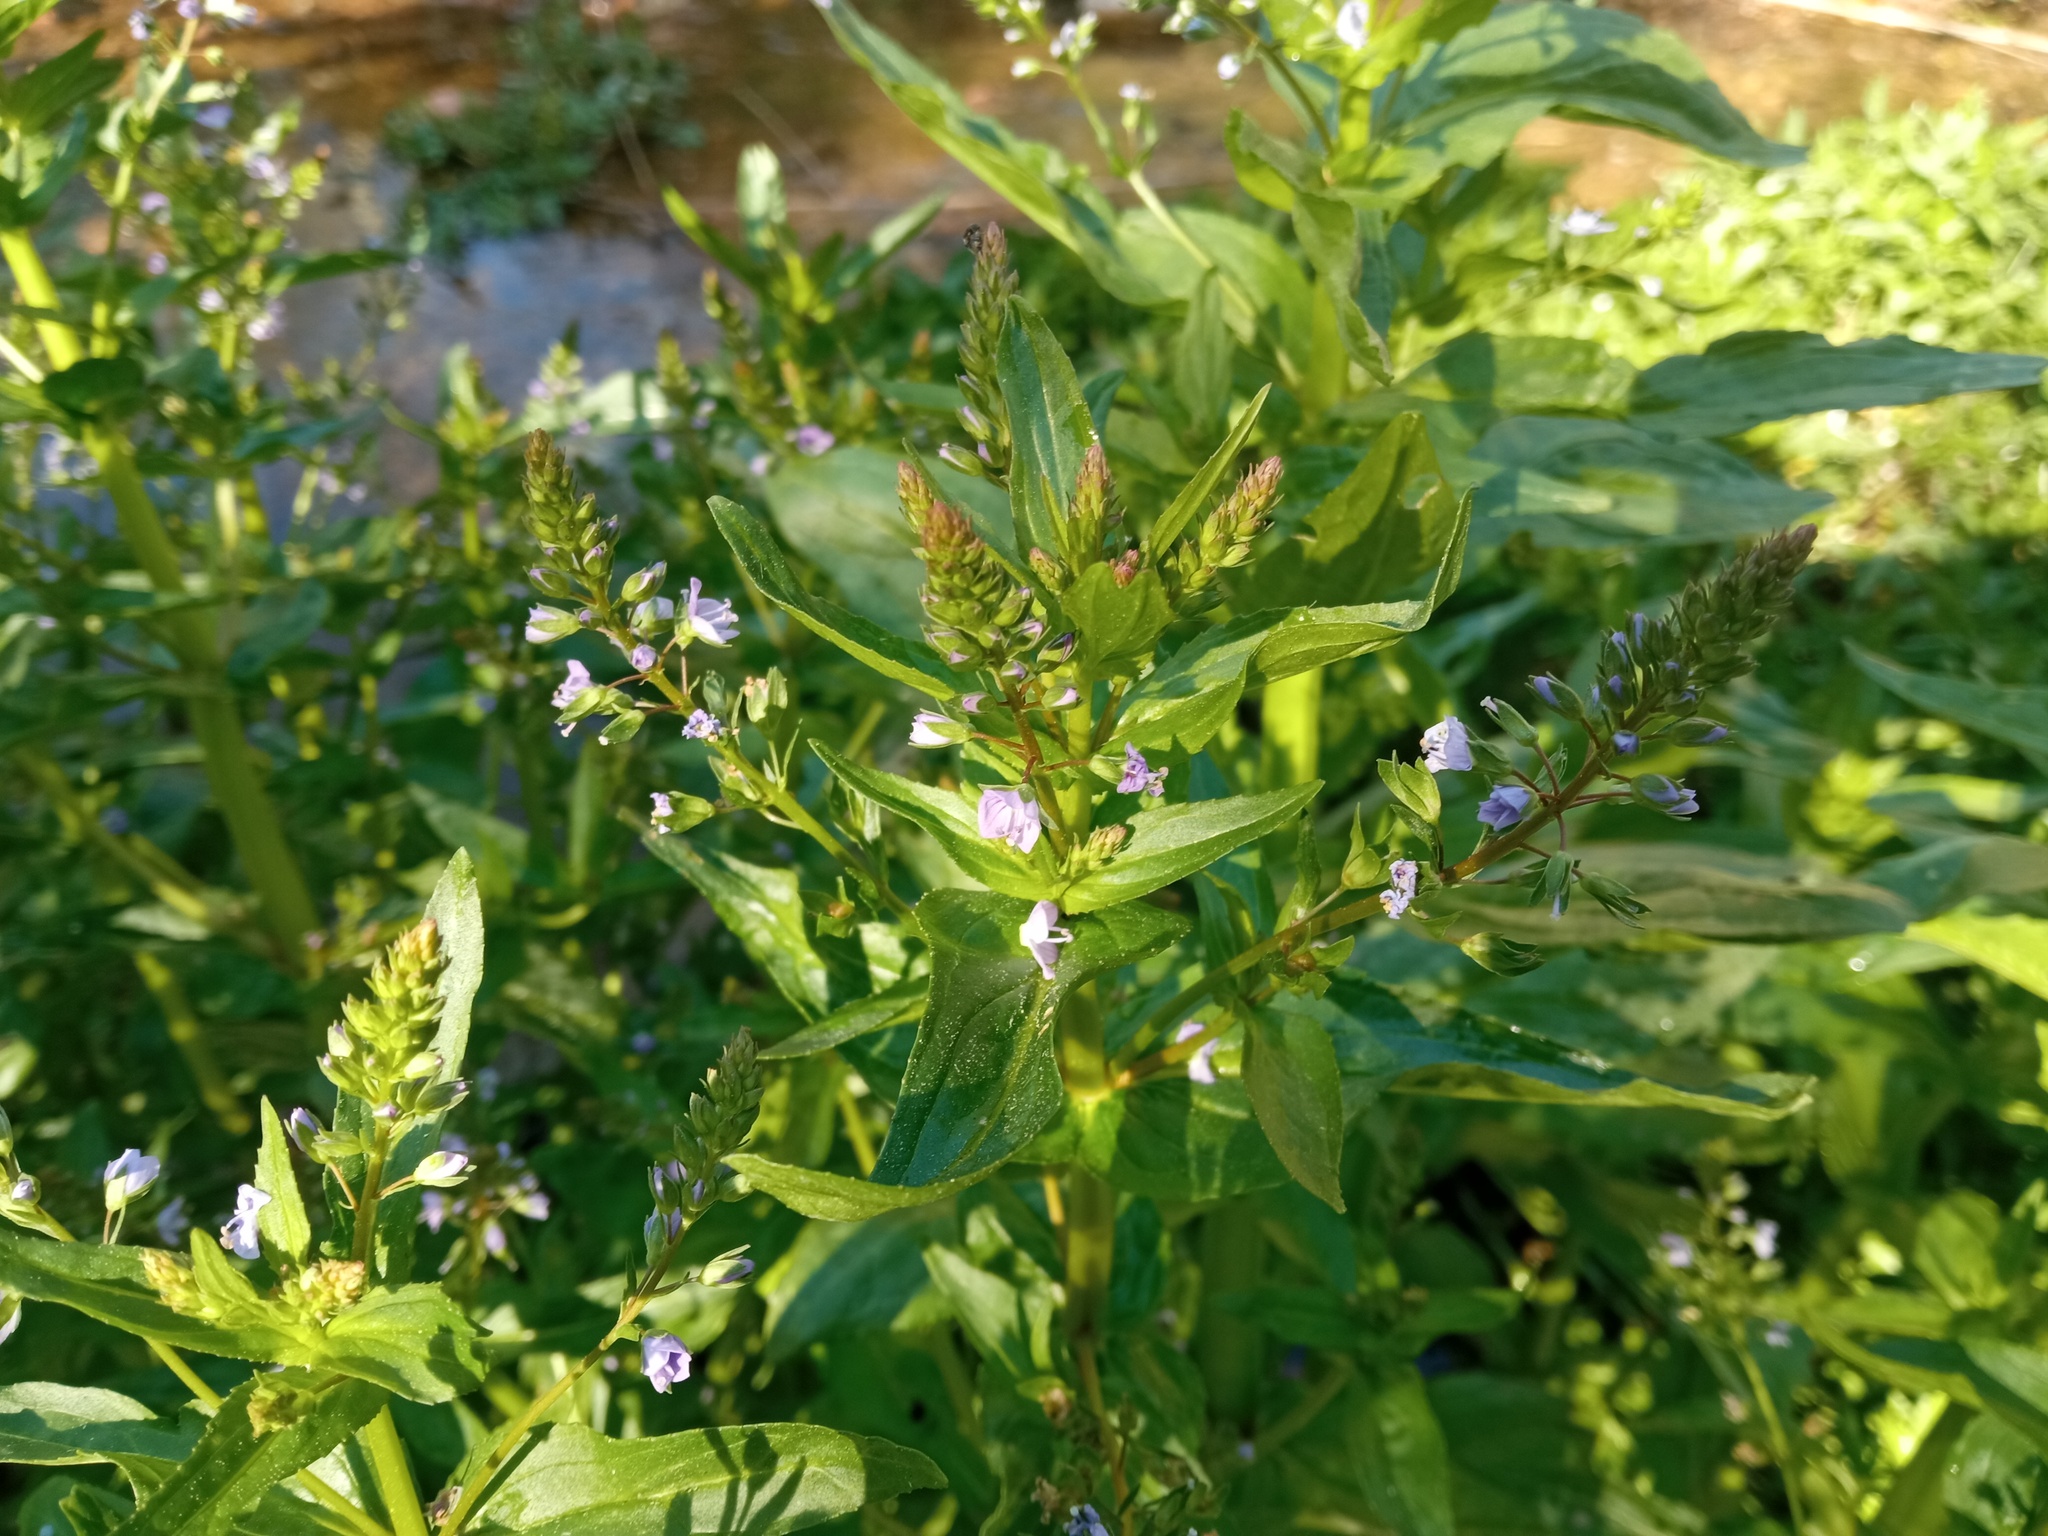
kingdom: Plantae
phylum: Tracheophyta
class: Magnoliopsida
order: Lamiales
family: Plantaginaceae
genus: Veronica
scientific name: Veronica anagallis-aquatica
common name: Water speedwell
